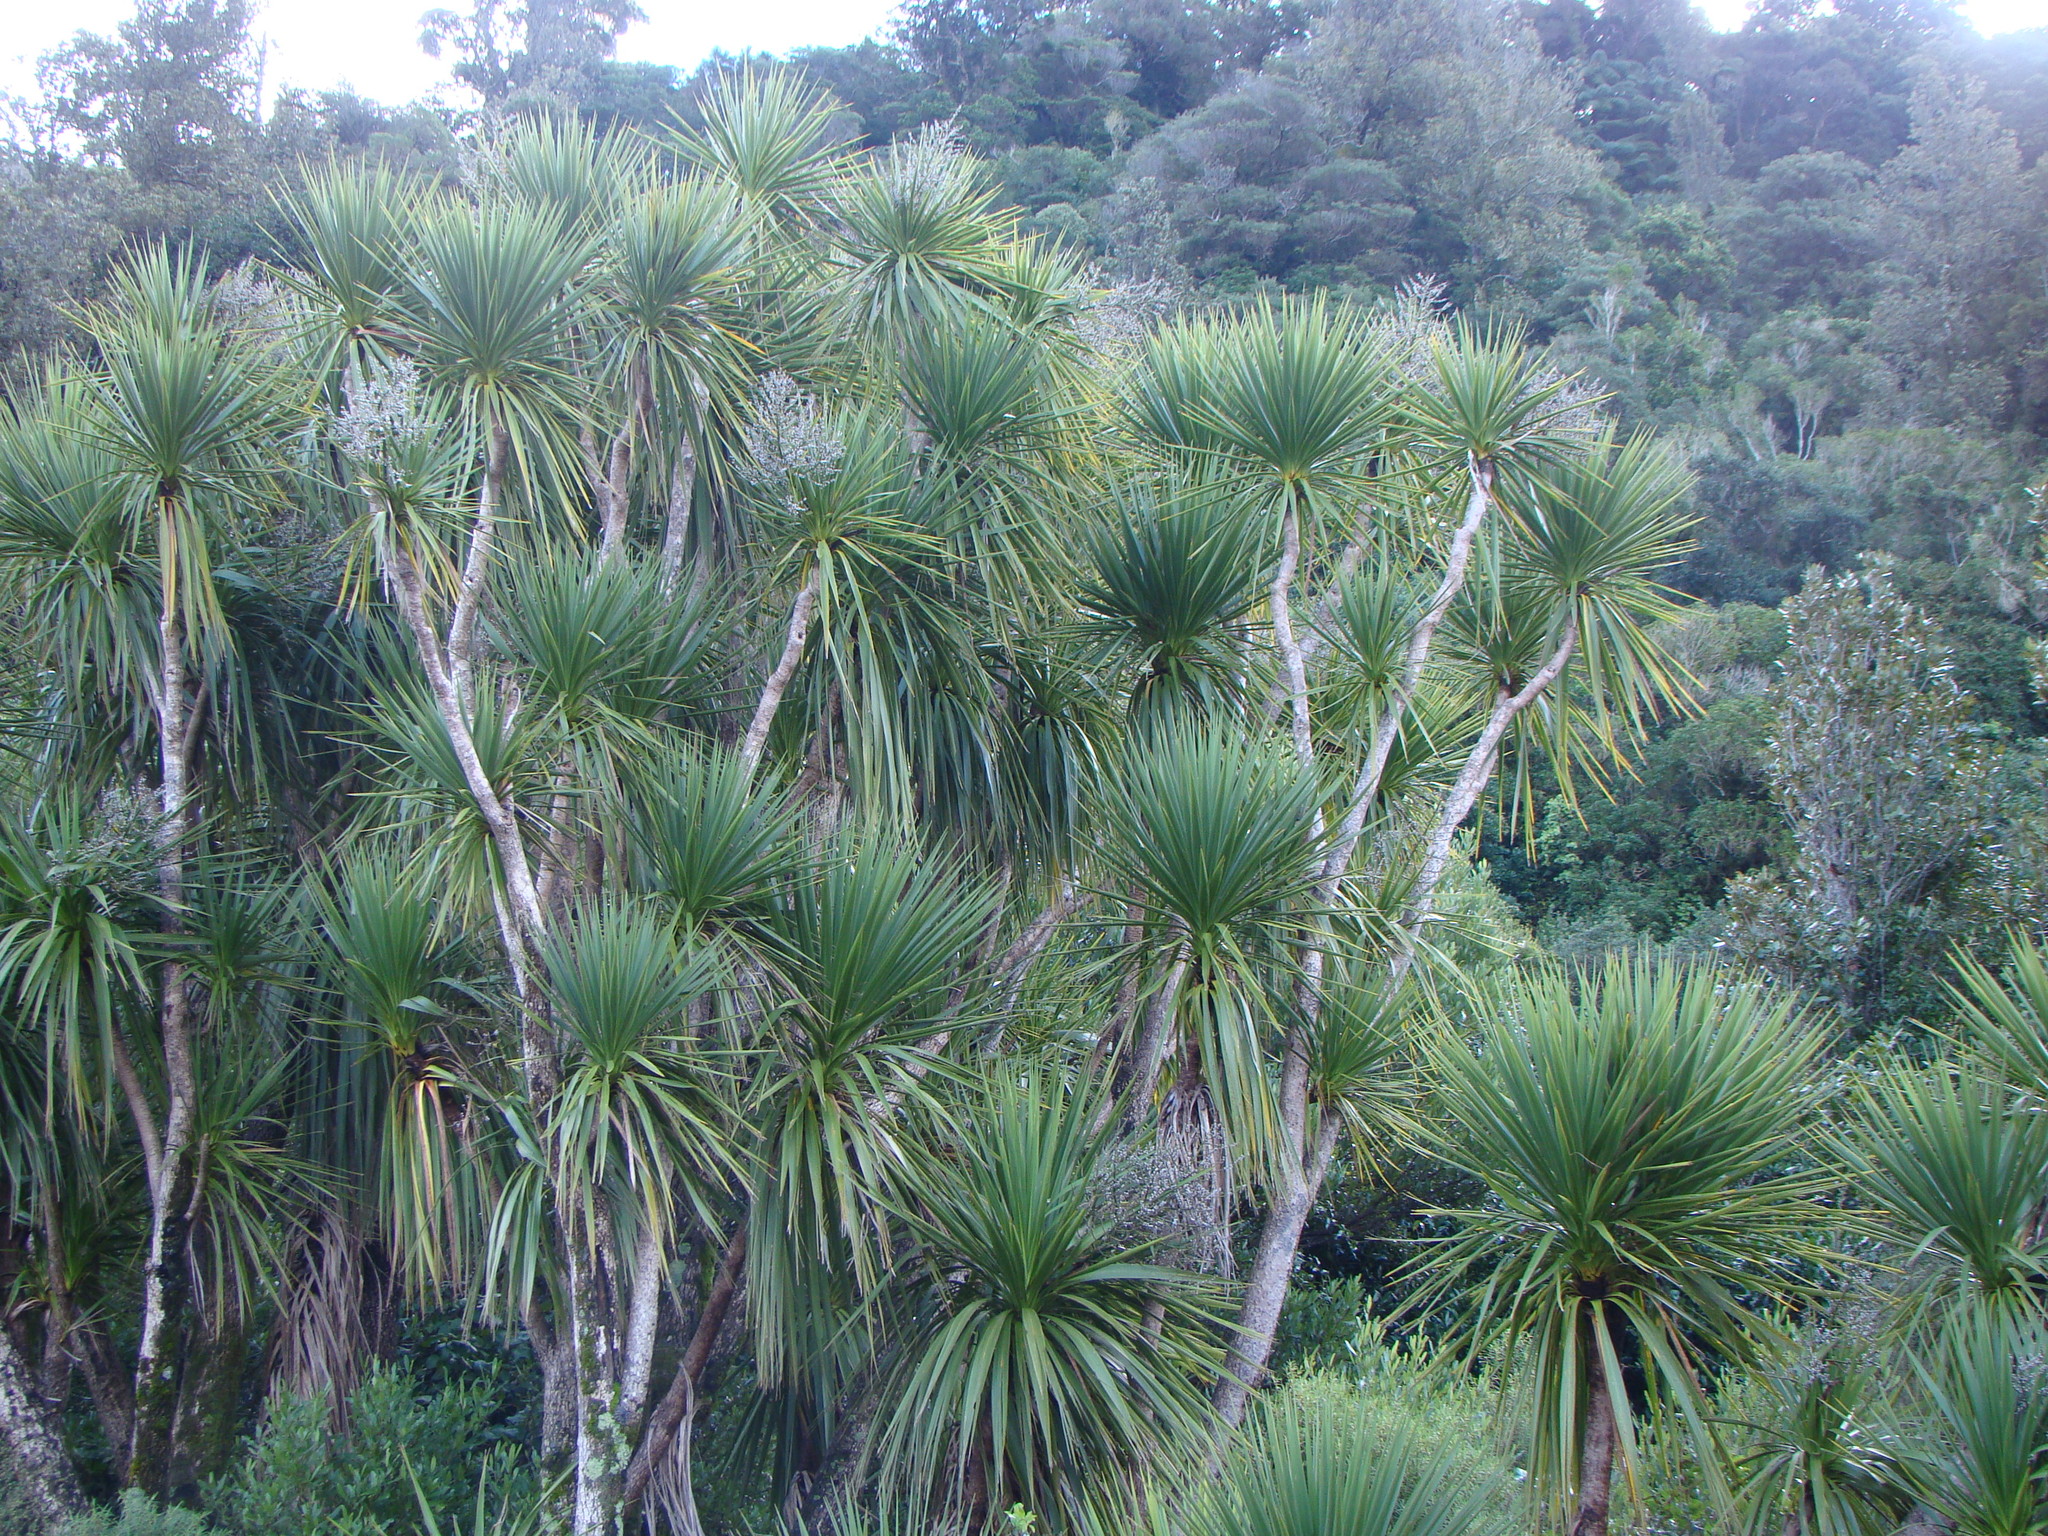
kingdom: Plantae
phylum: Tracheophyta
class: Liliopsida
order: Asparagales
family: Asparagaceae
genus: Cordyline
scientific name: Cordyline australis
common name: Cabbage-palm
